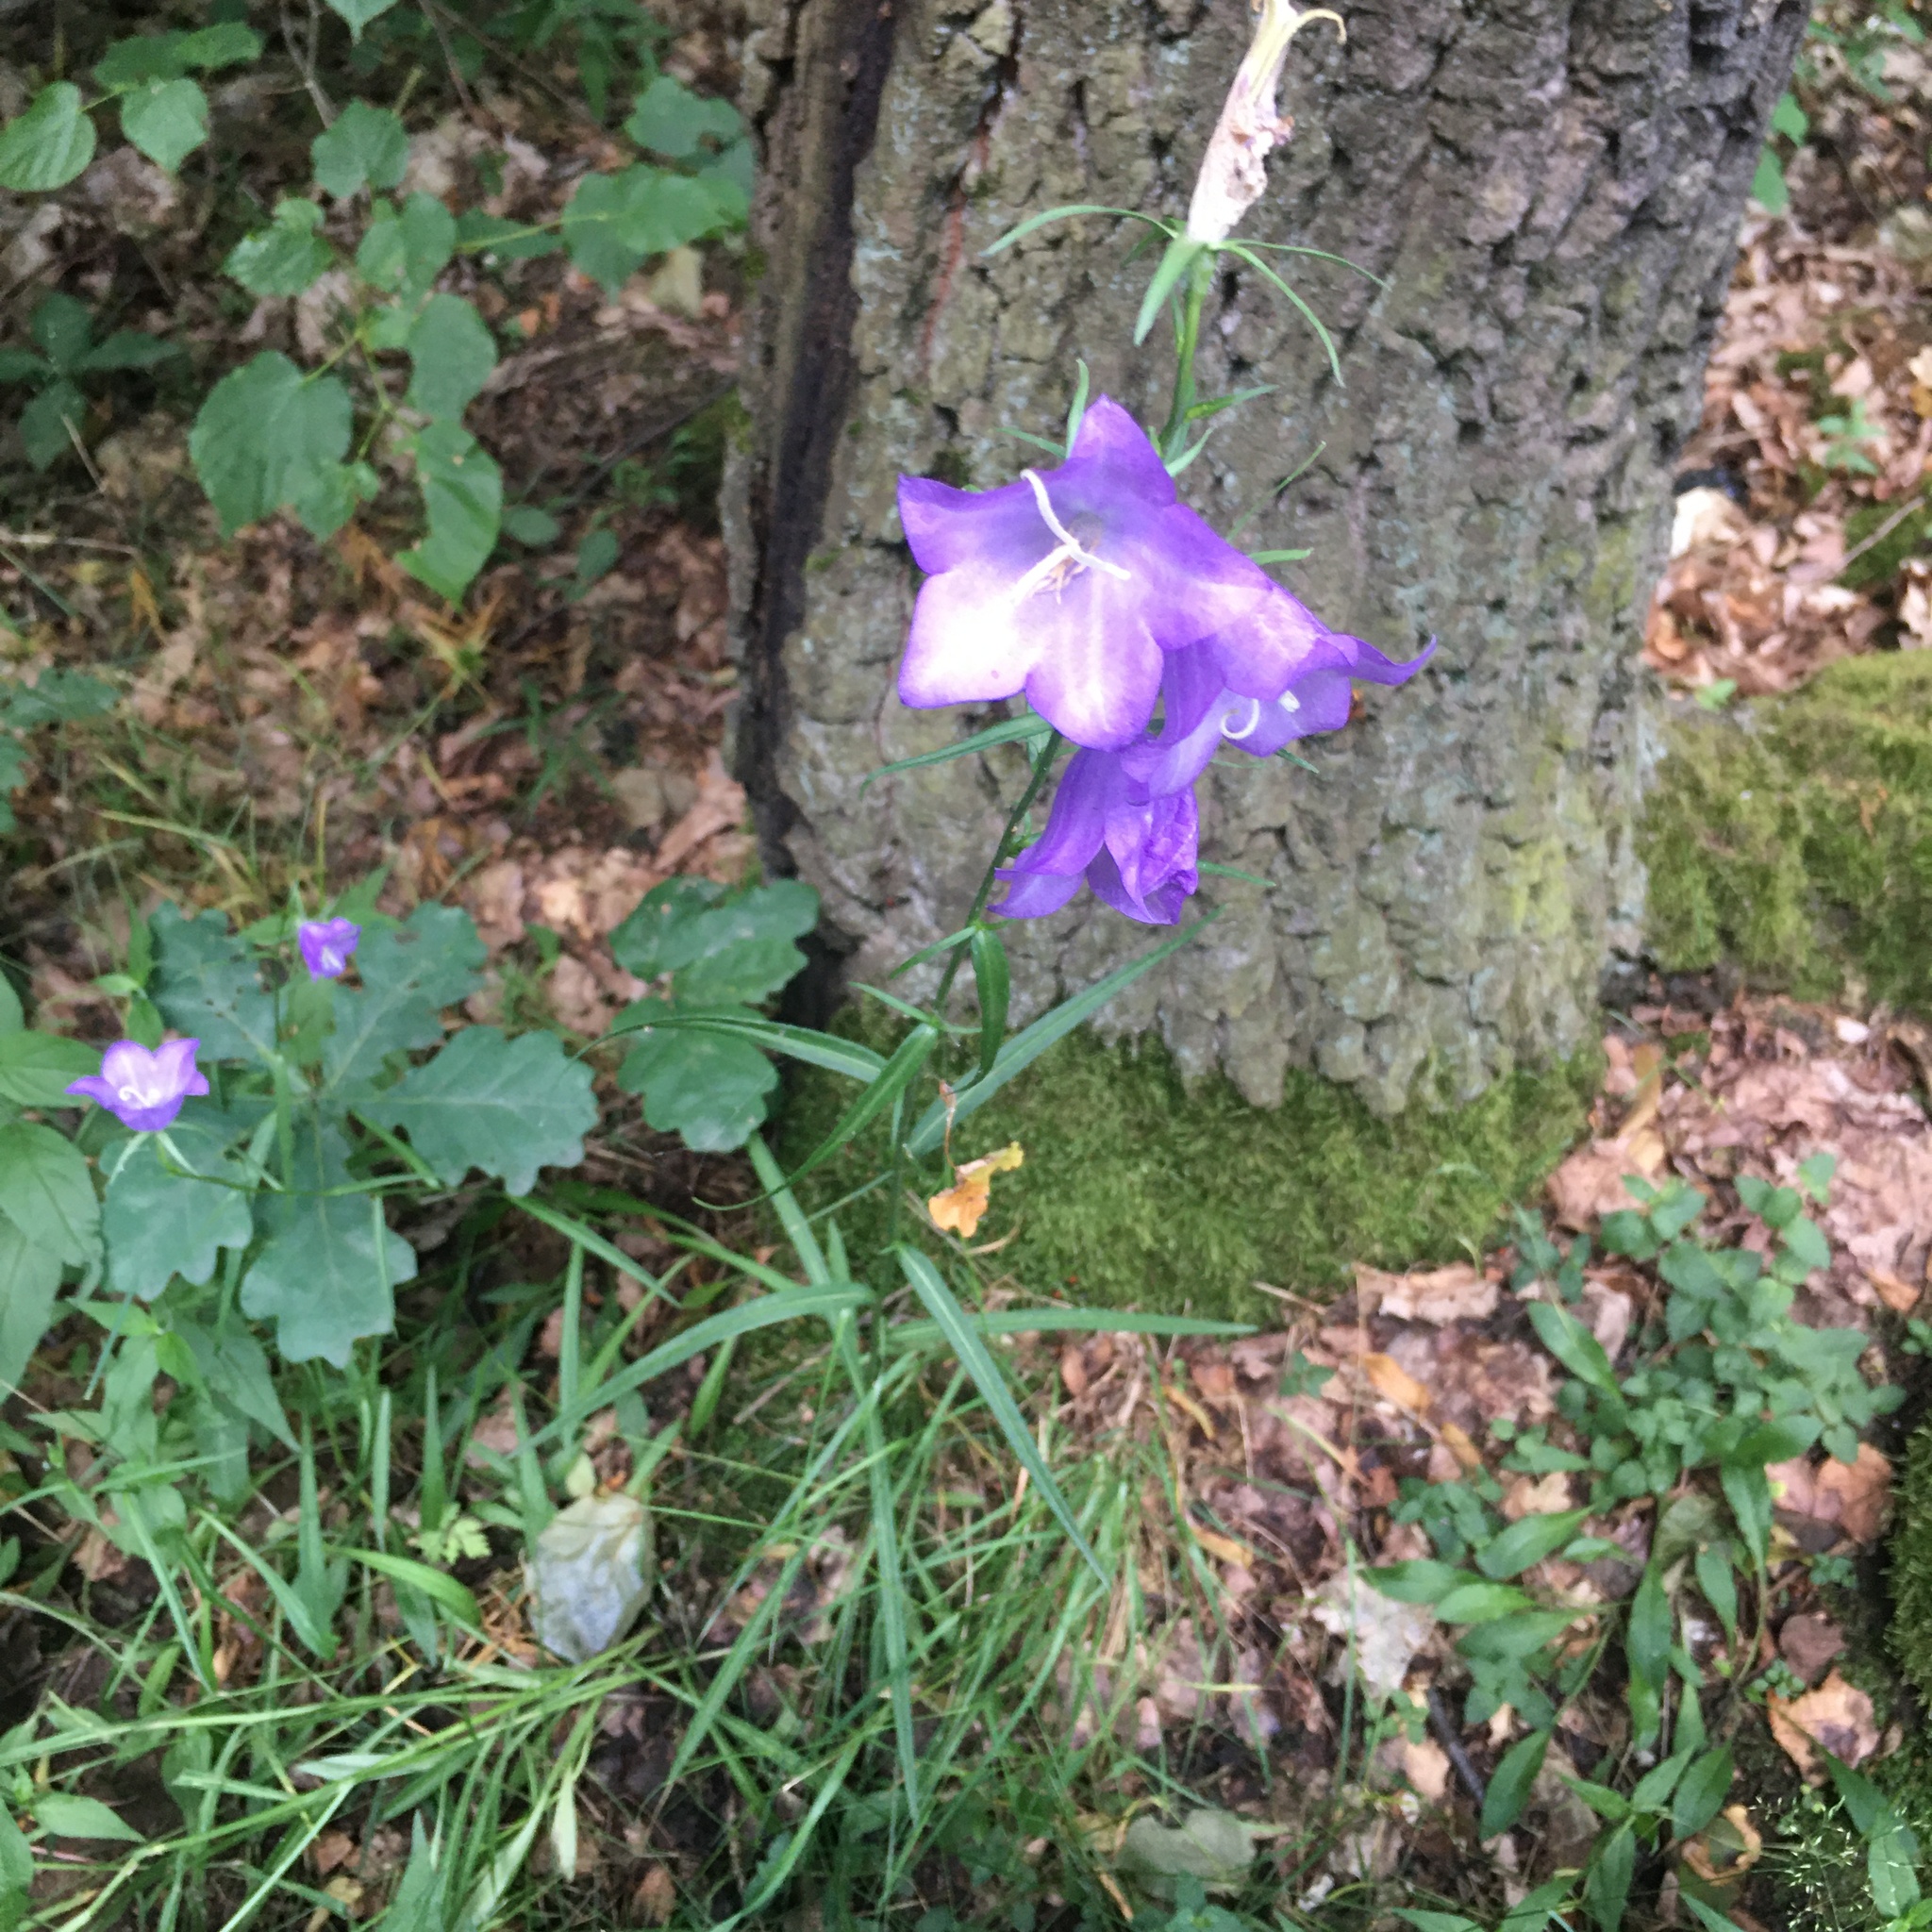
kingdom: Plantae
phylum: Tracheophyta
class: Magnoliopsida
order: Asterales
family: Campanulaceae
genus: Campanula
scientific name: Campanula persicifolia
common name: Peach-leaved bellflower
